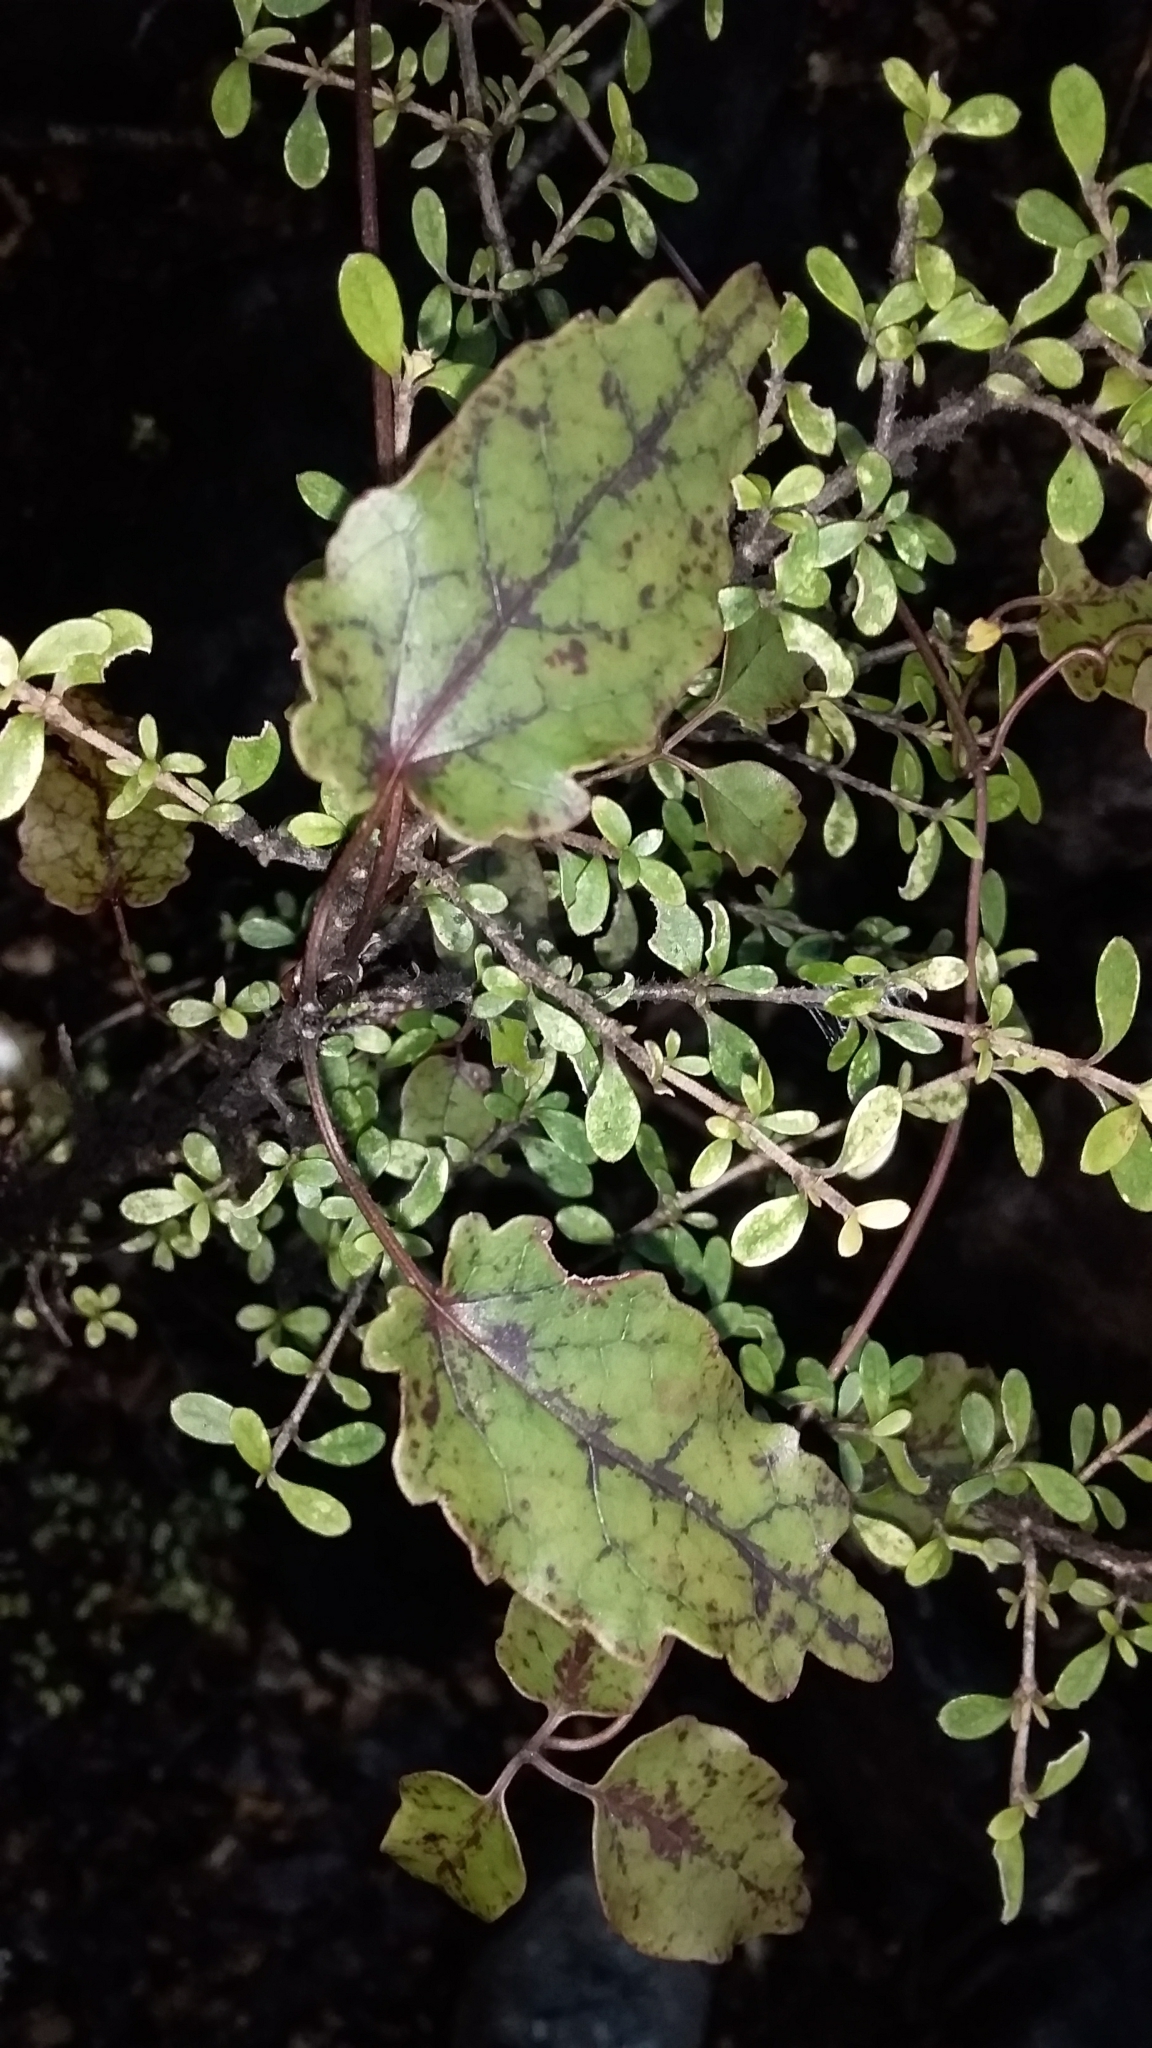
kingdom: Plantae
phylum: Tracheophyta
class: Magnoliopsida
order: Ranunculales
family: Ranunculaceae
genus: Clematis
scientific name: Clematis forsteri
